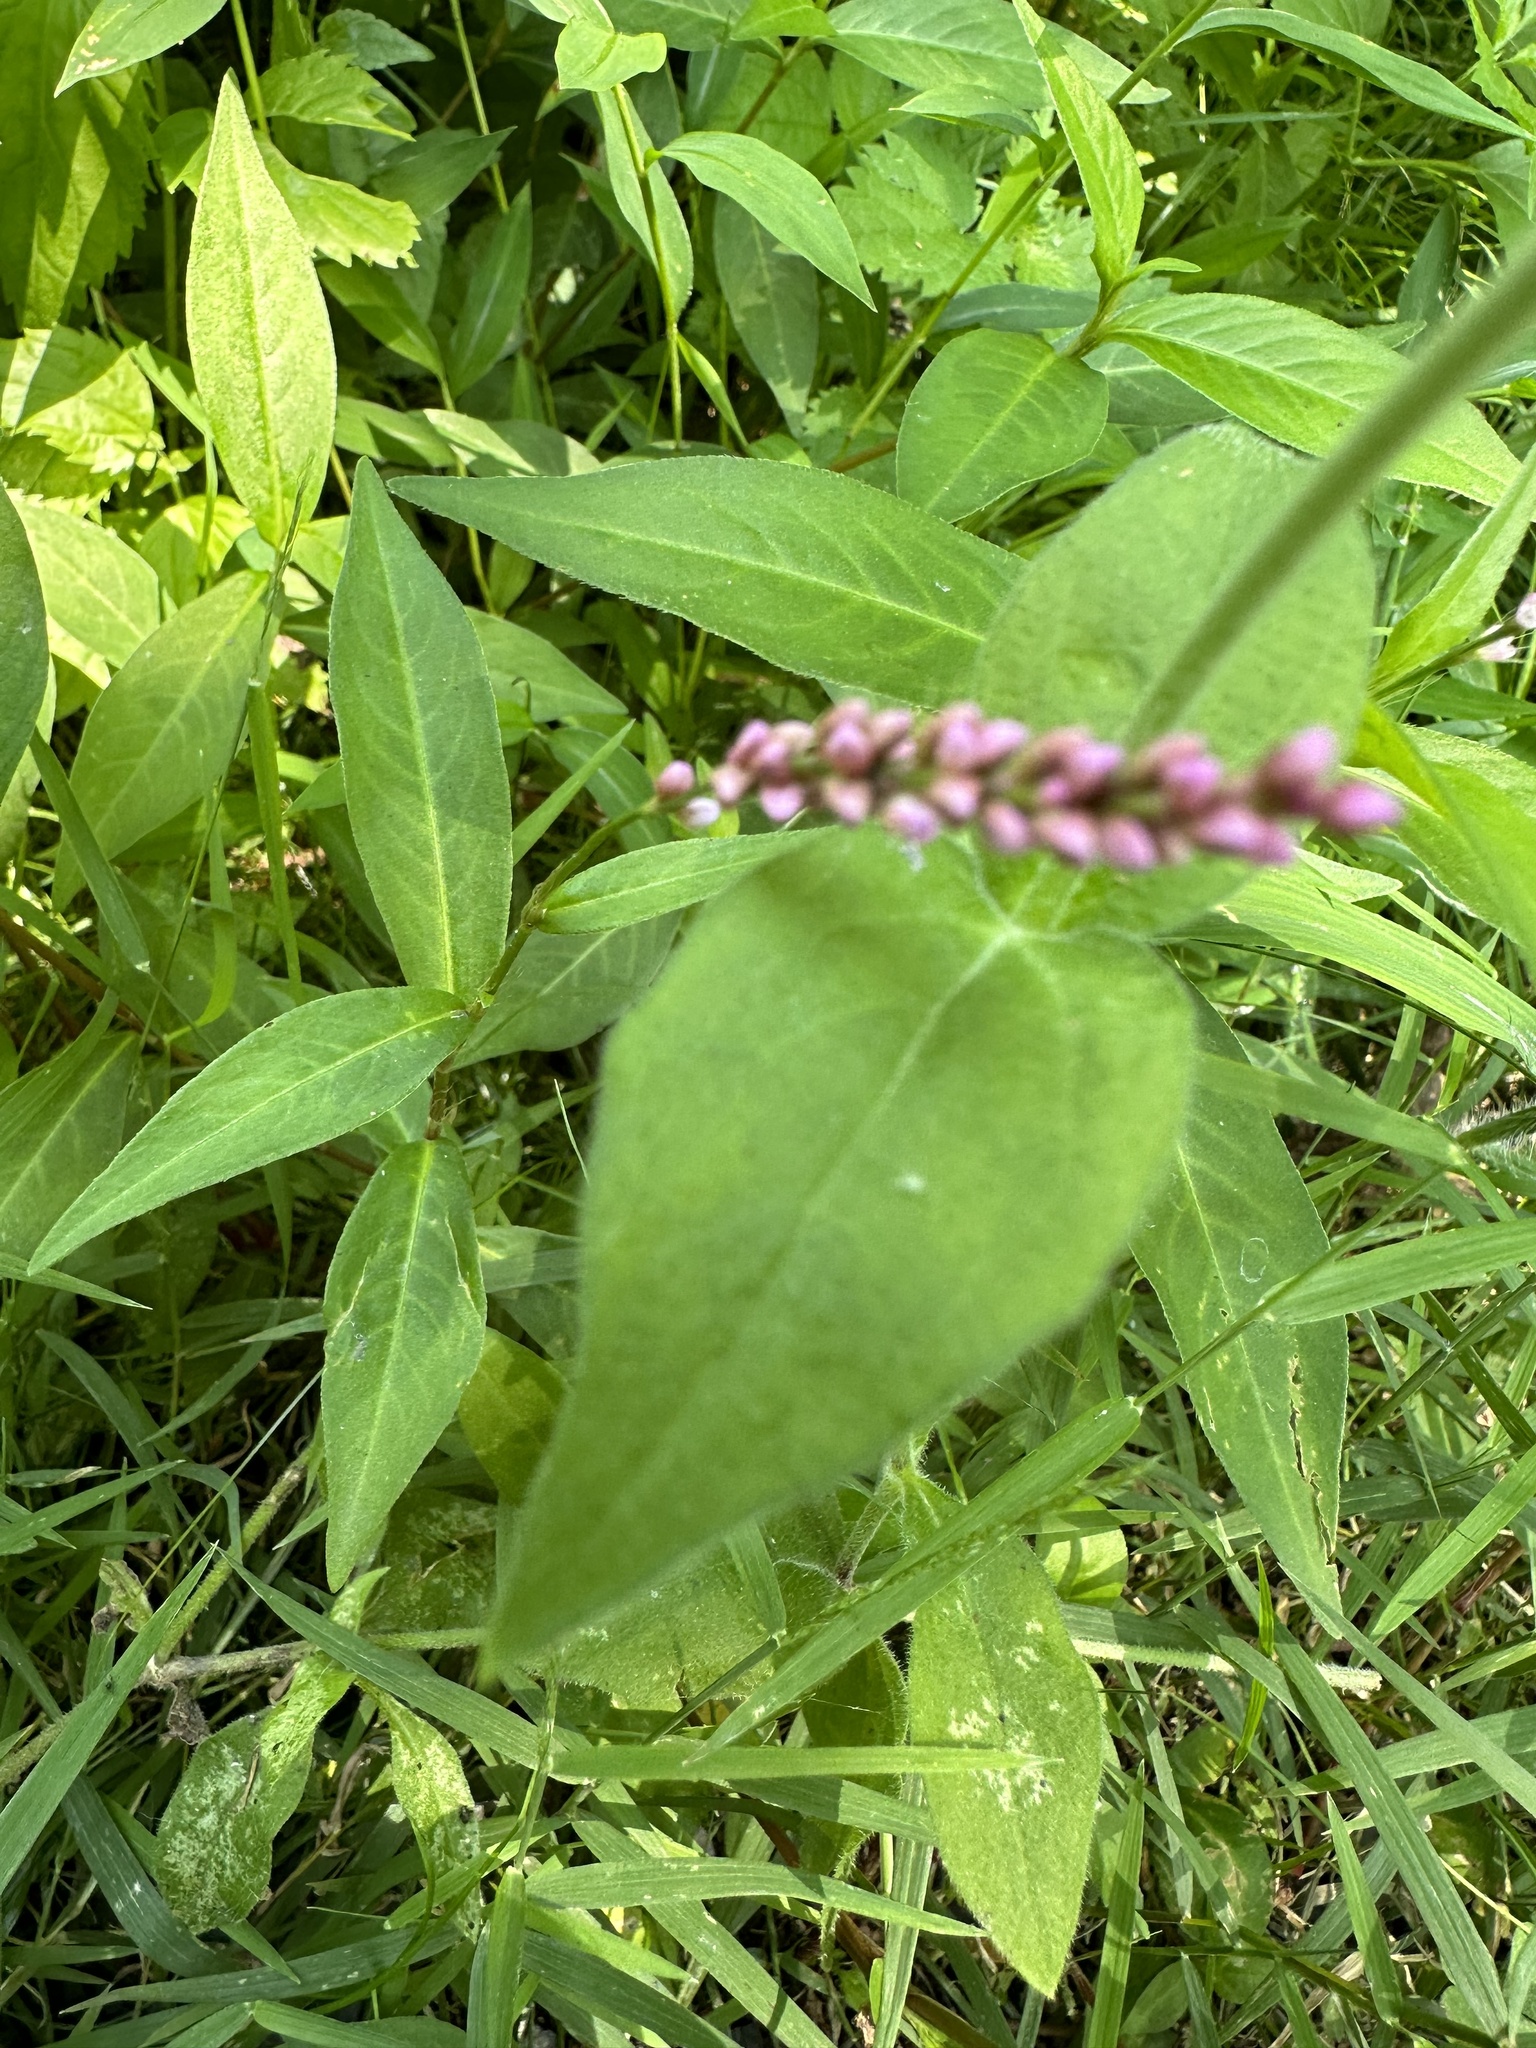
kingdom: Plantae
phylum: Tracheophyta
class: Magnoliopsida
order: Caryophyllales
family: Polygonaceae
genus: Persicaria
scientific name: Persicaria longiseta
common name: Bristly lady's-thumb
